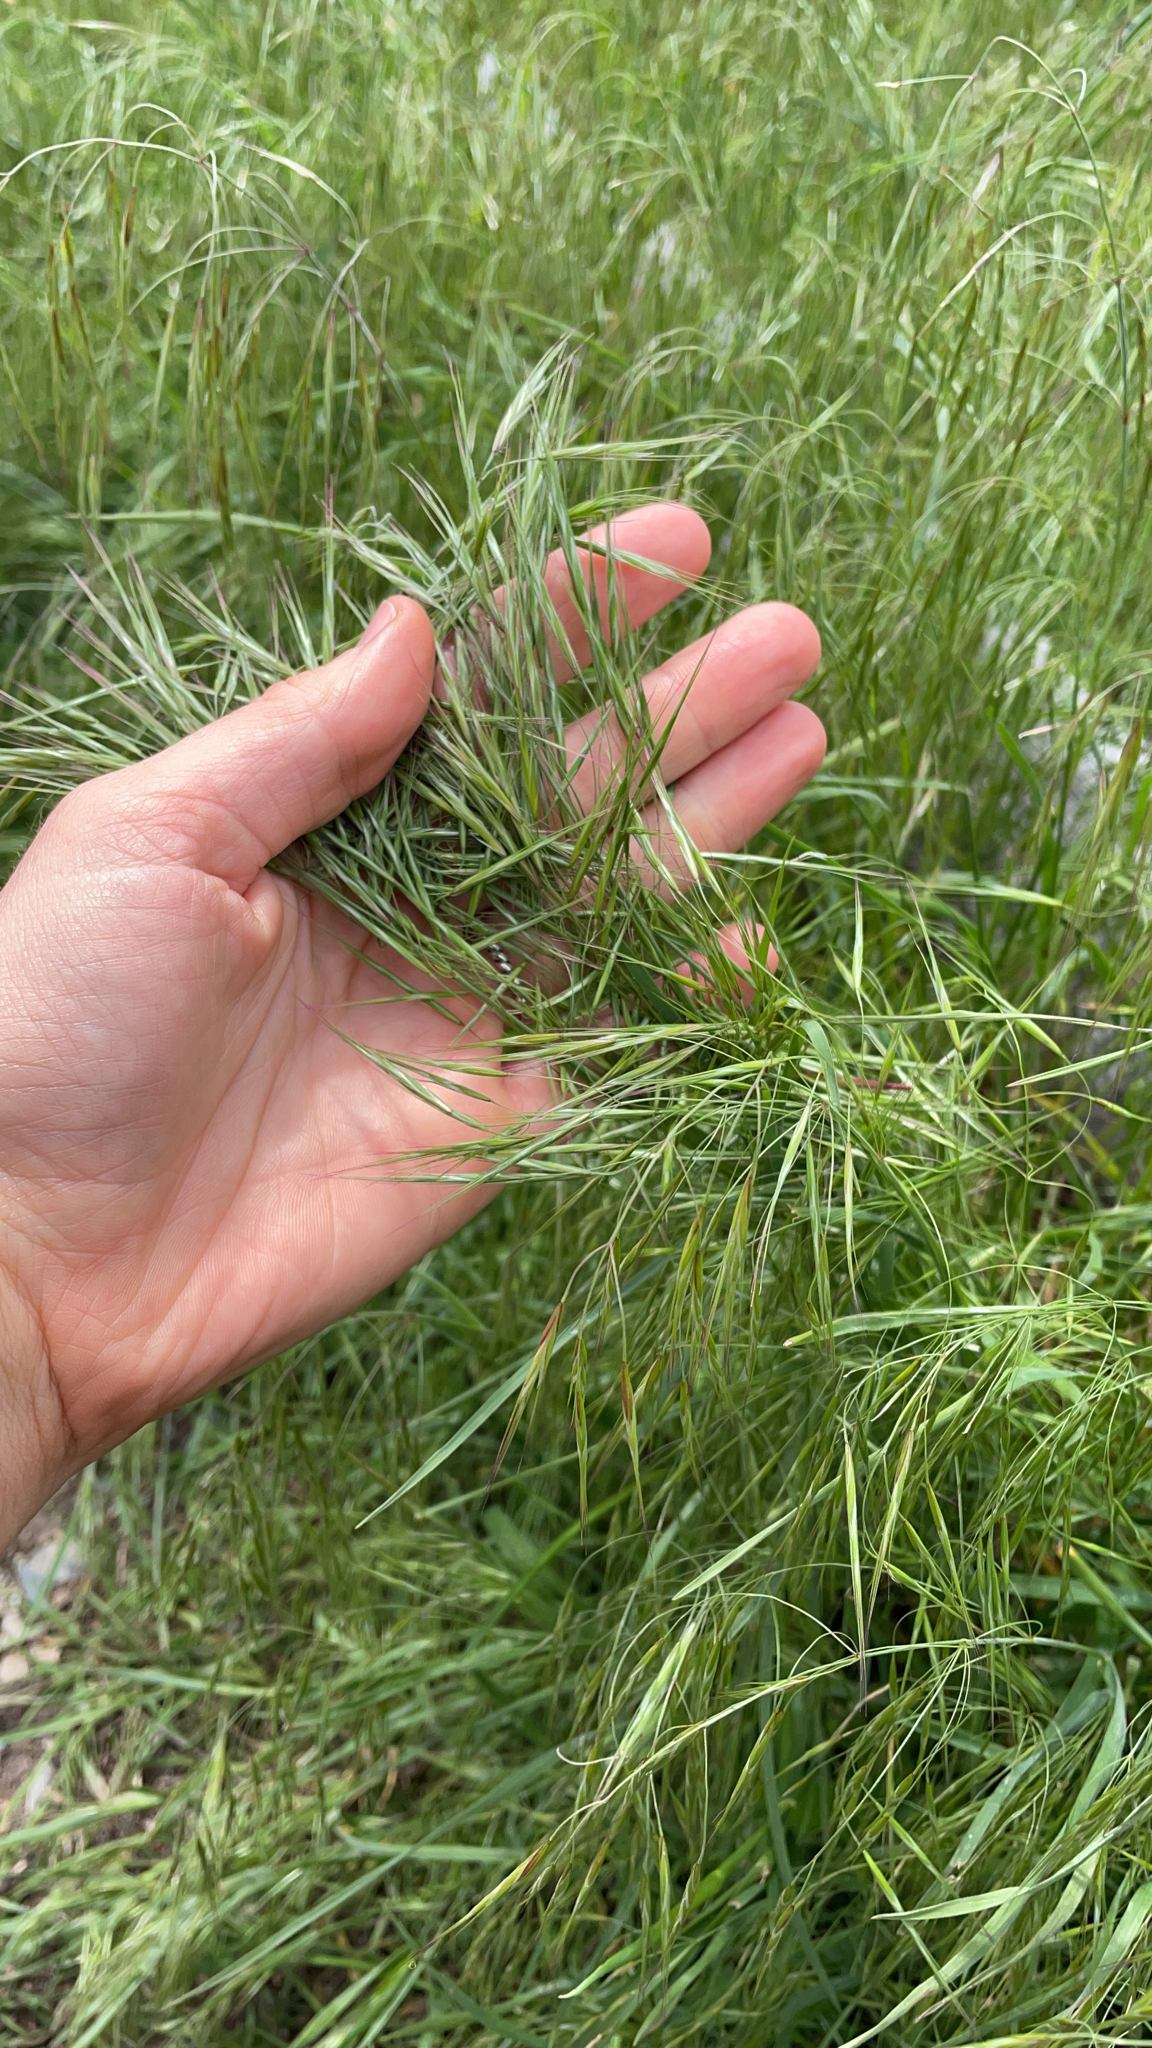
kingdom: Plantae
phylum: Tracheophyta
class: Liliopsida
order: Poales
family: Poaceae
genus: Bromus
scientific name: Bromus tectorum
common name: Cheatgrass
